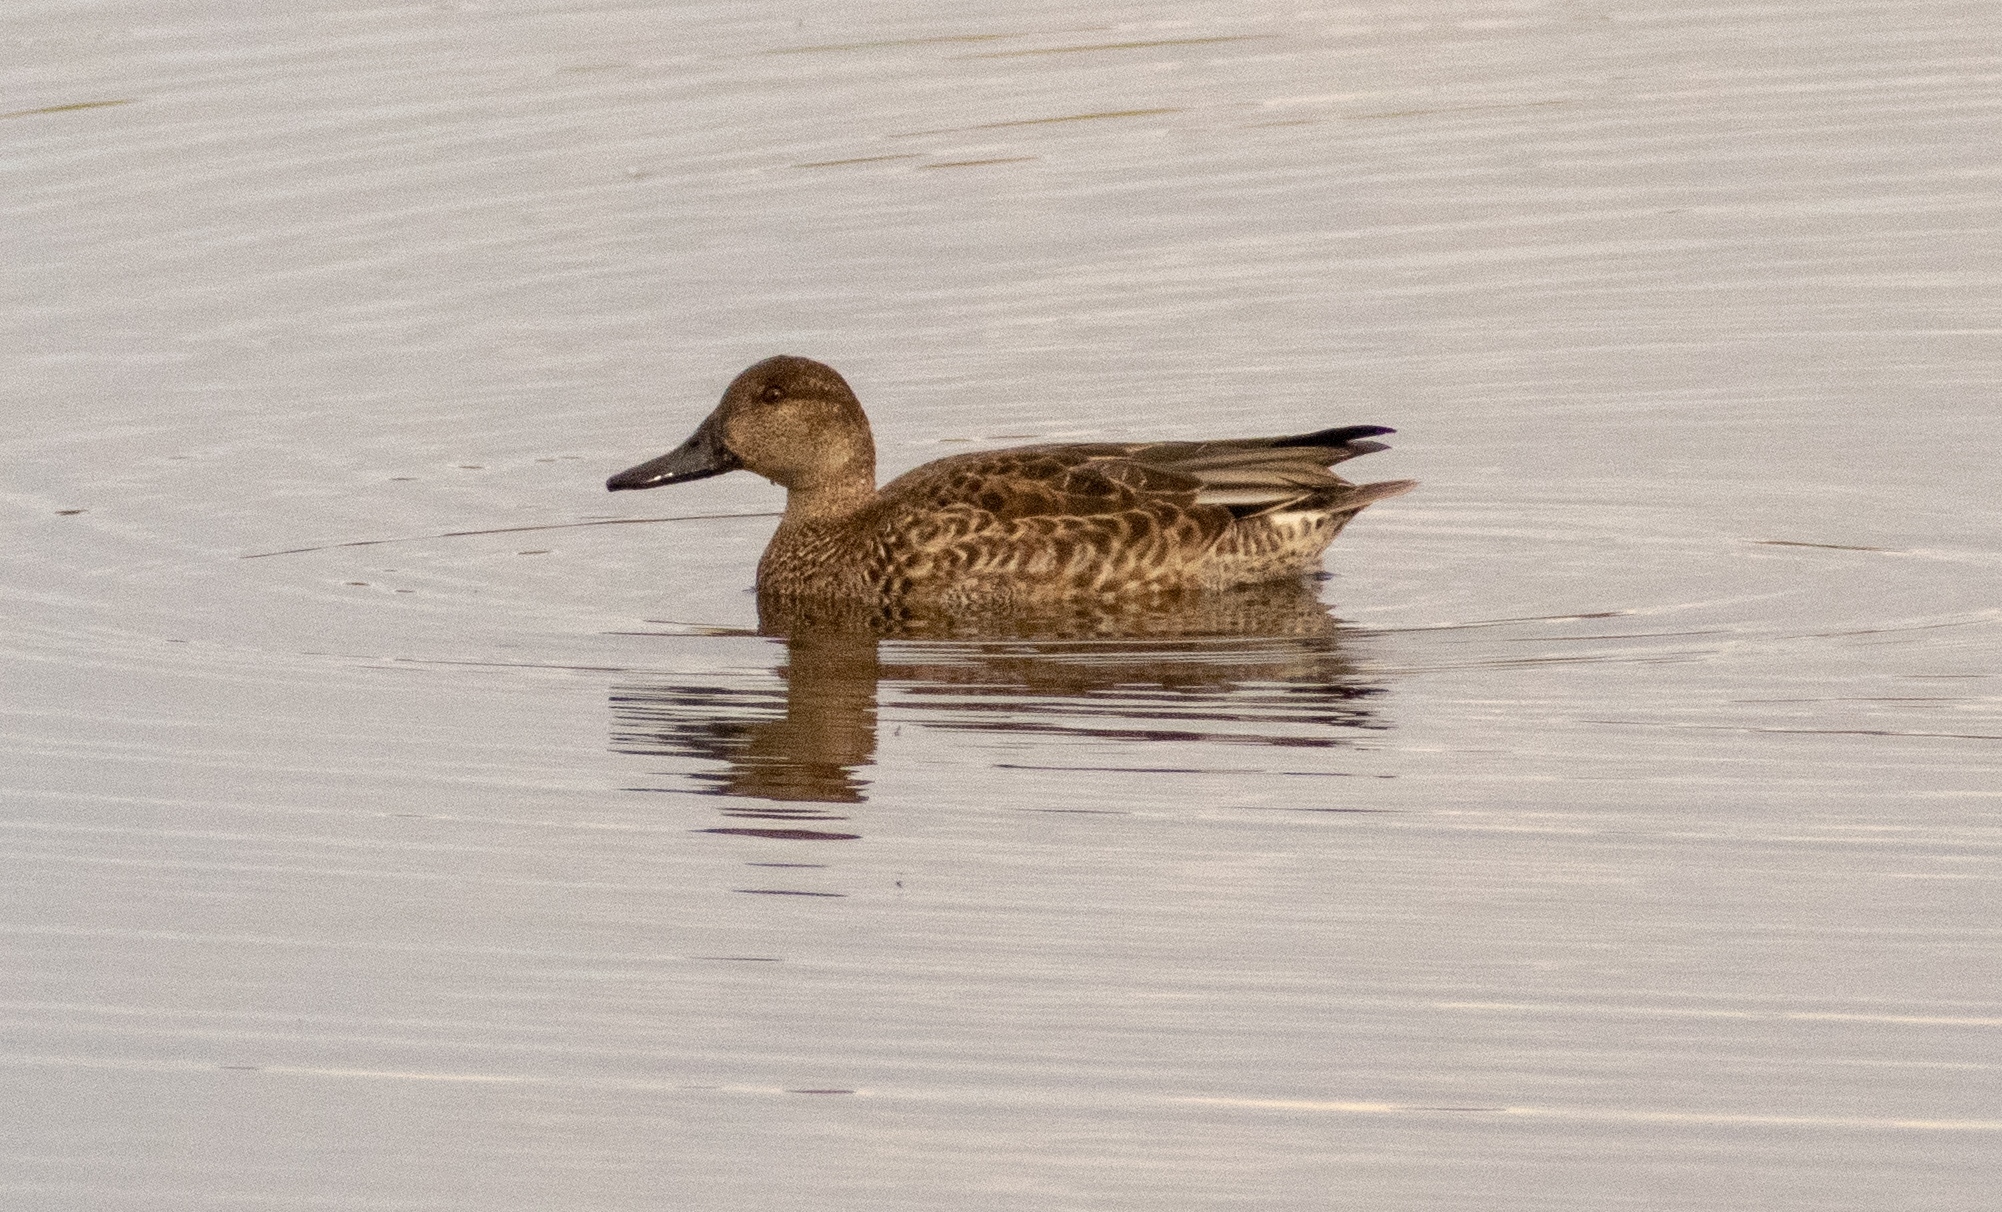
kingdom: Animalia
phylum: Chordata
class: Aves
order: Anseriformes
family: Anatidae
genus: Anas
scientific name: Anas crecca
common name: Eurasian teal
